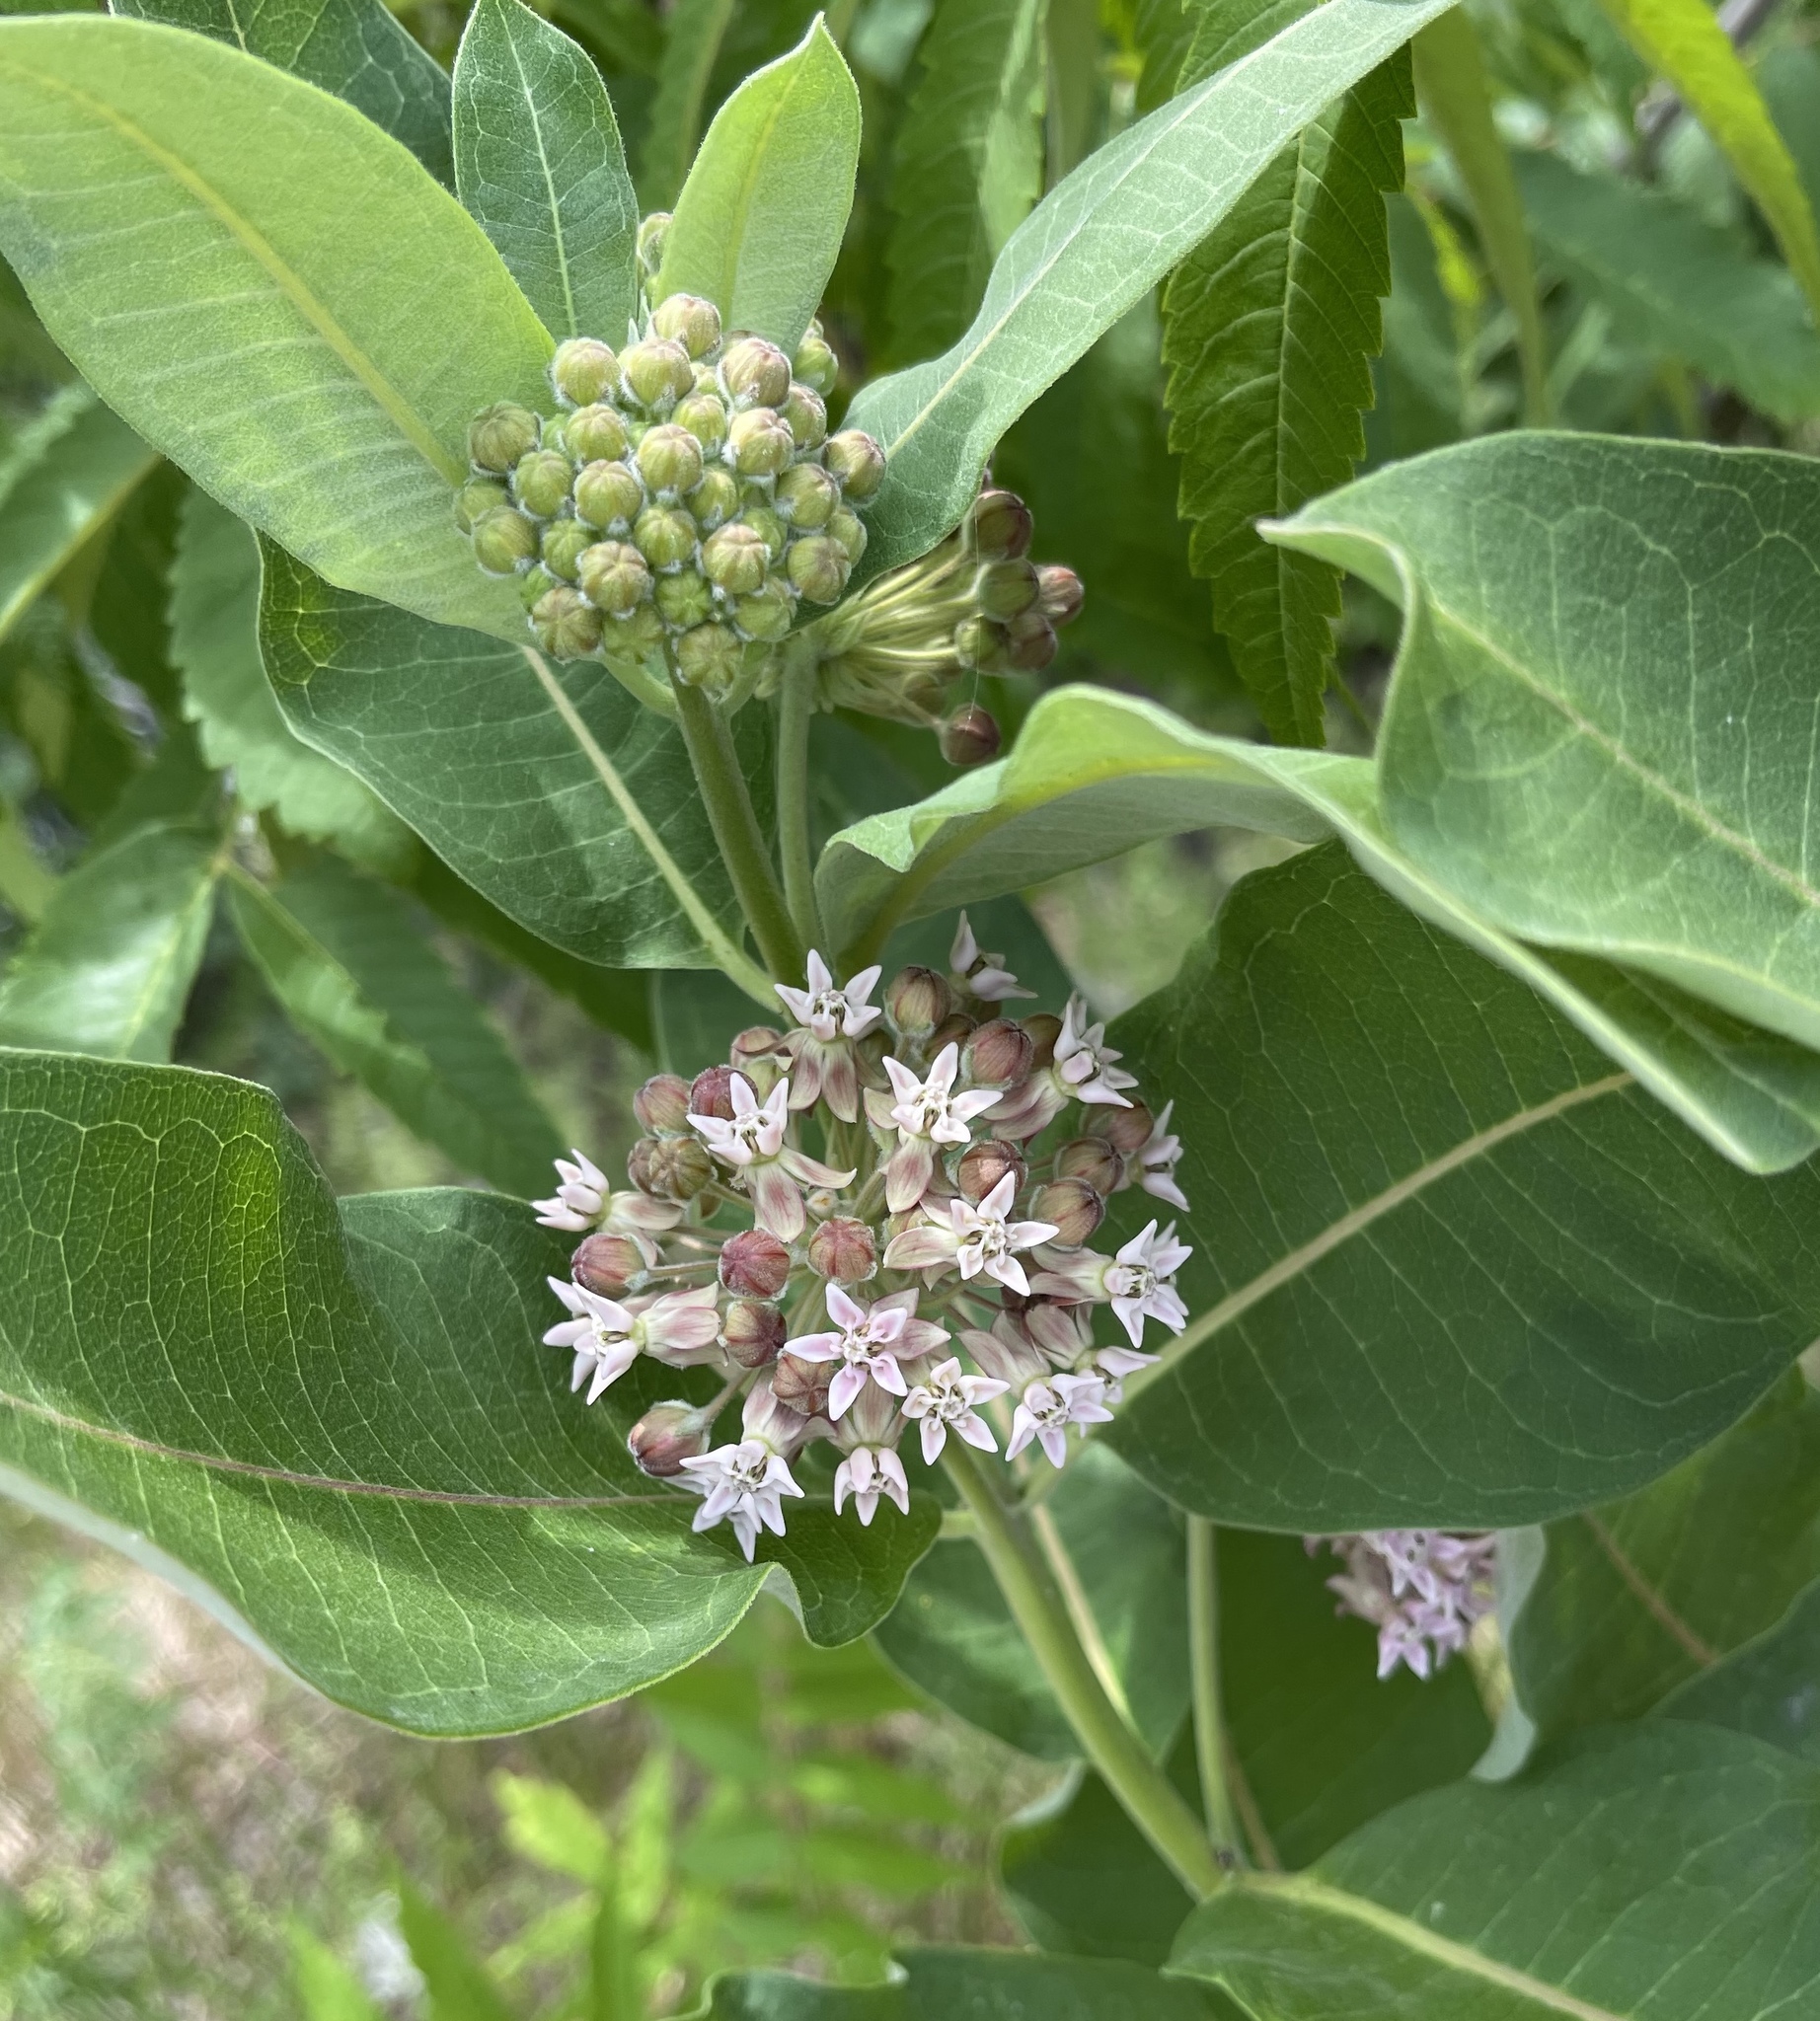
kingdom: Plantae
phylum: Tracheophyta
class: Magnoliopsida
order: Gentianales
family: Apocynaceae
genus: Asclepias
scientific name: Asclepias syriaca
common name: Common milkweed
